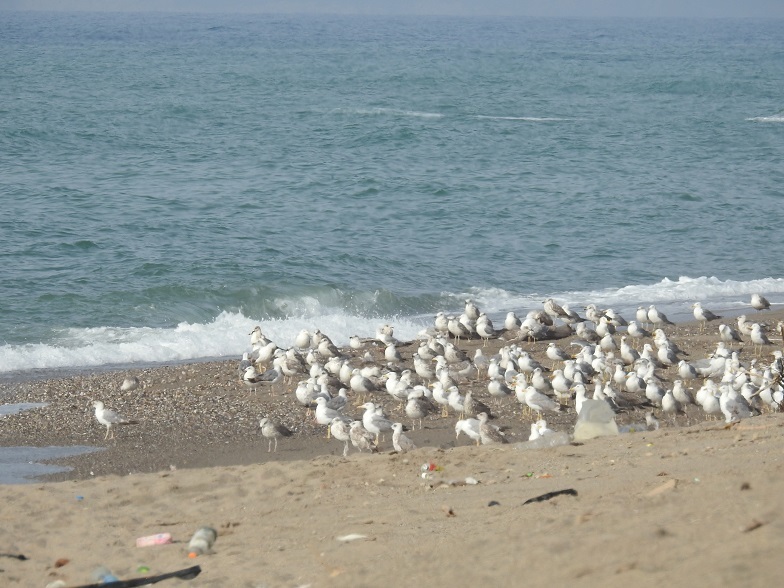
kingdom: Animalia
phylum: Chordata
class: Aves
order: Charadriiformes
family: Laridae
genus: Larus
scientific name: Larus michahellis
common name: Yellow-legged gull
